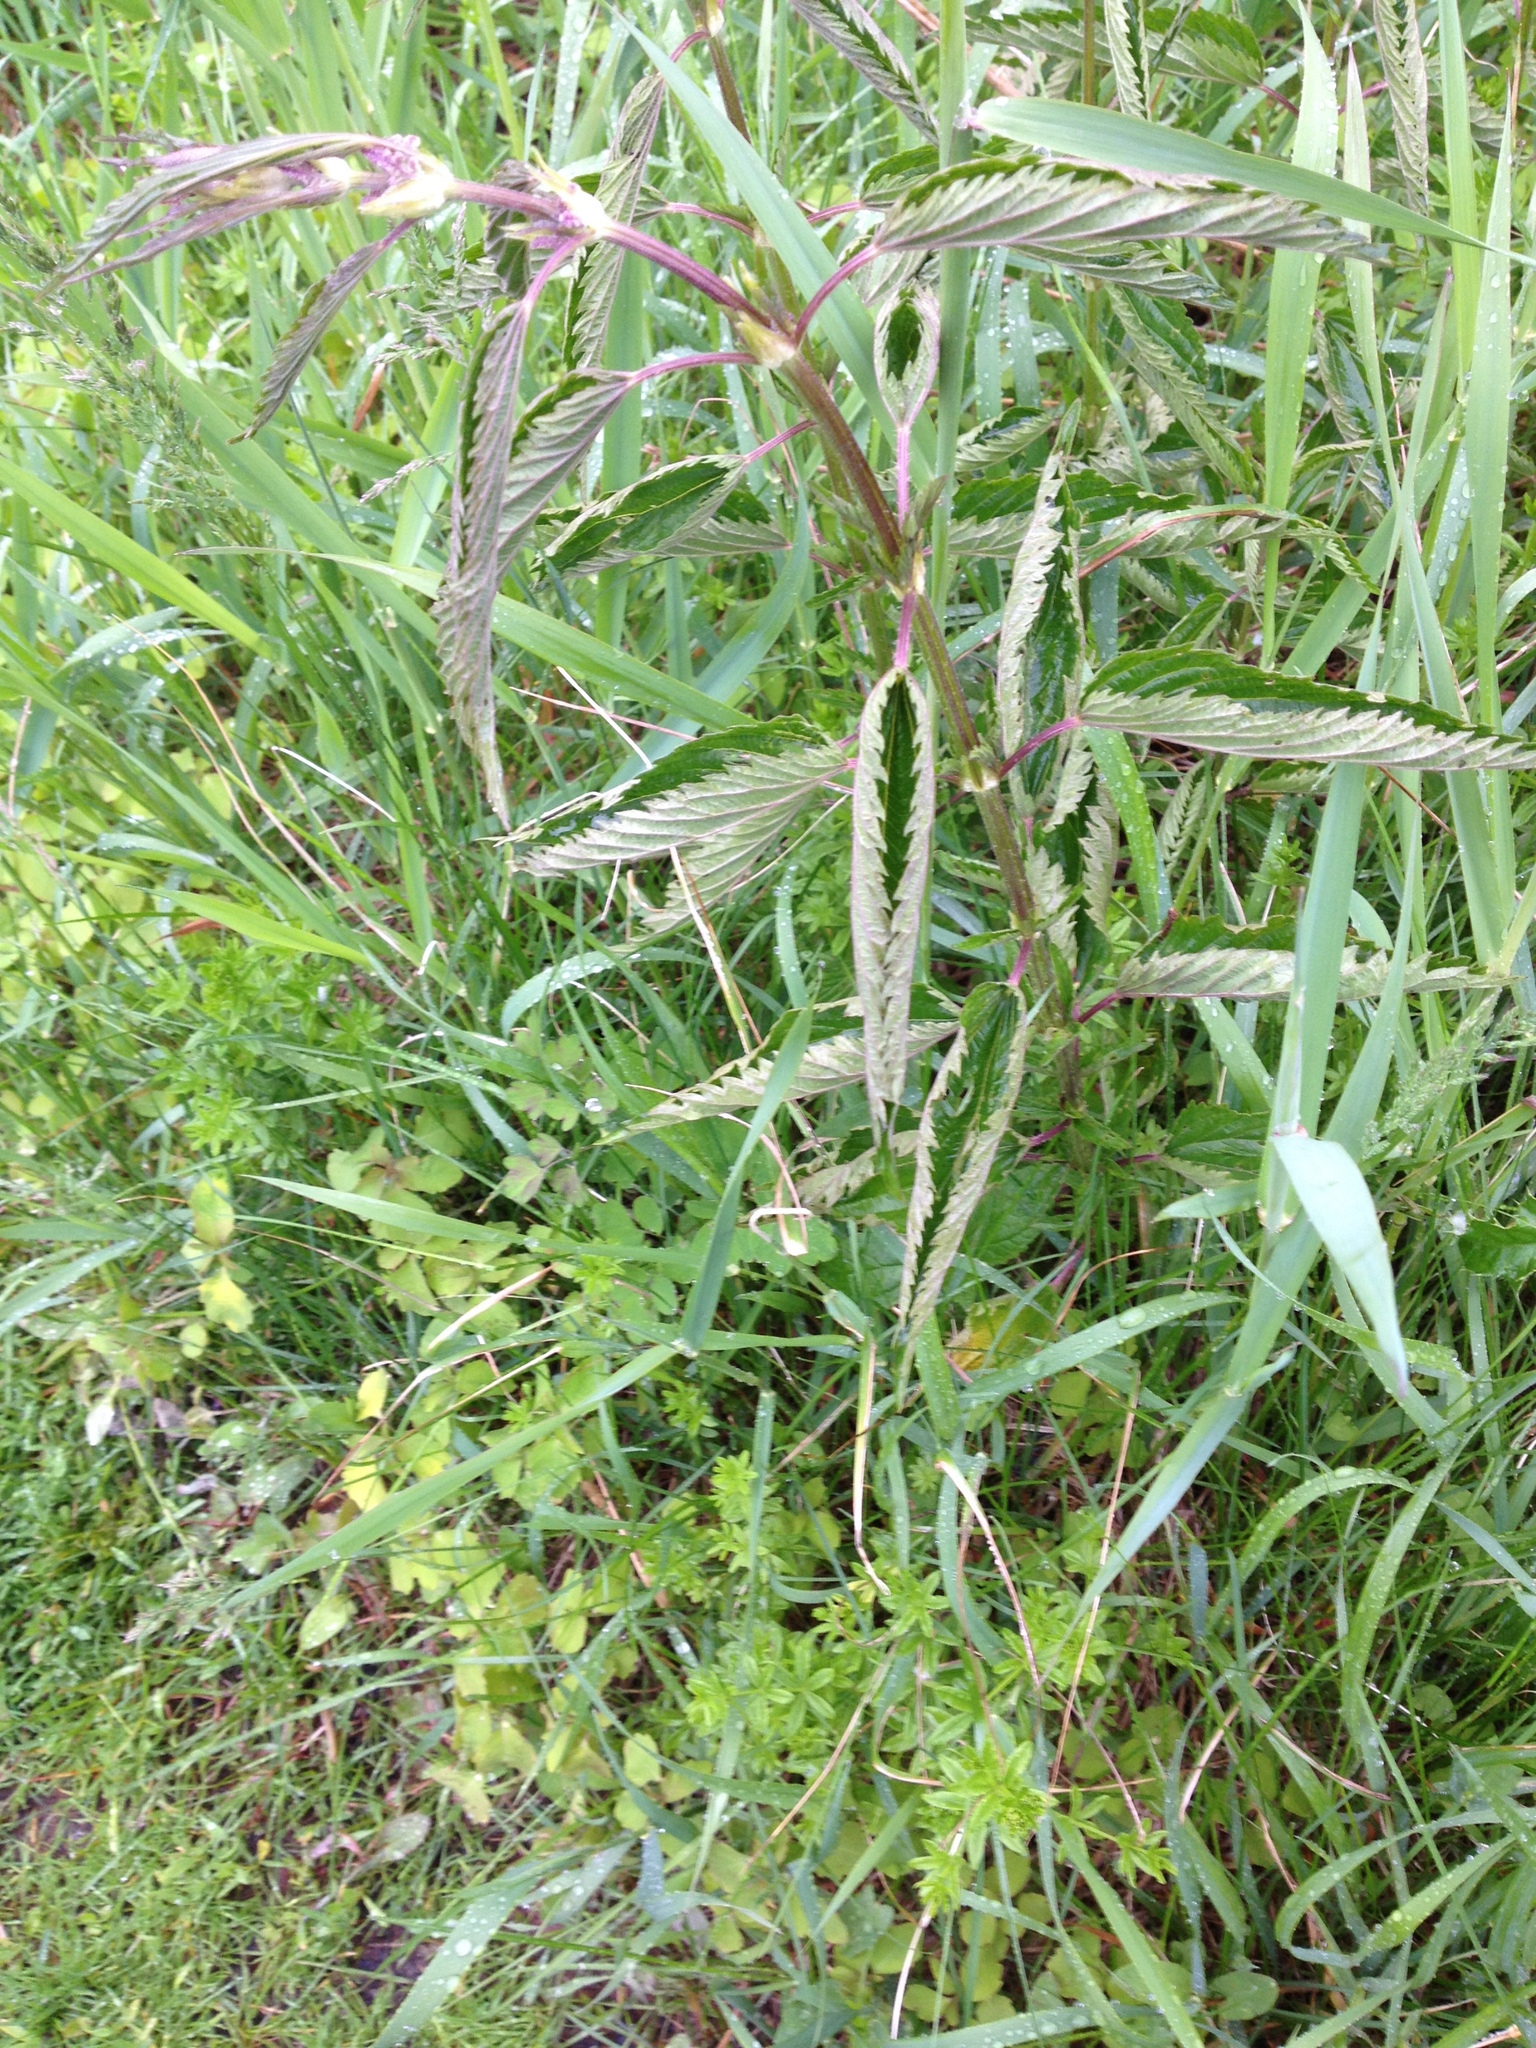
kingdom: Plantae
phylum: Tracheophyta
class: Magnoliopsida
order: Rosales
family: Urticaceae
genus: Urtica
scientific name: Urtica gracilis
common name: Slender stinging nettle
